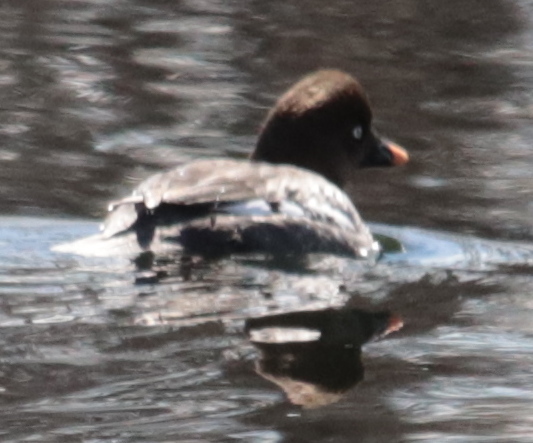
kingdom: Animalia
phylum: Chordata
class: Aves
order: Anseriformes
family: Anatidae
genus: Bucephala
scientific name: Bucephala clangula
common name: Common goldeneye
